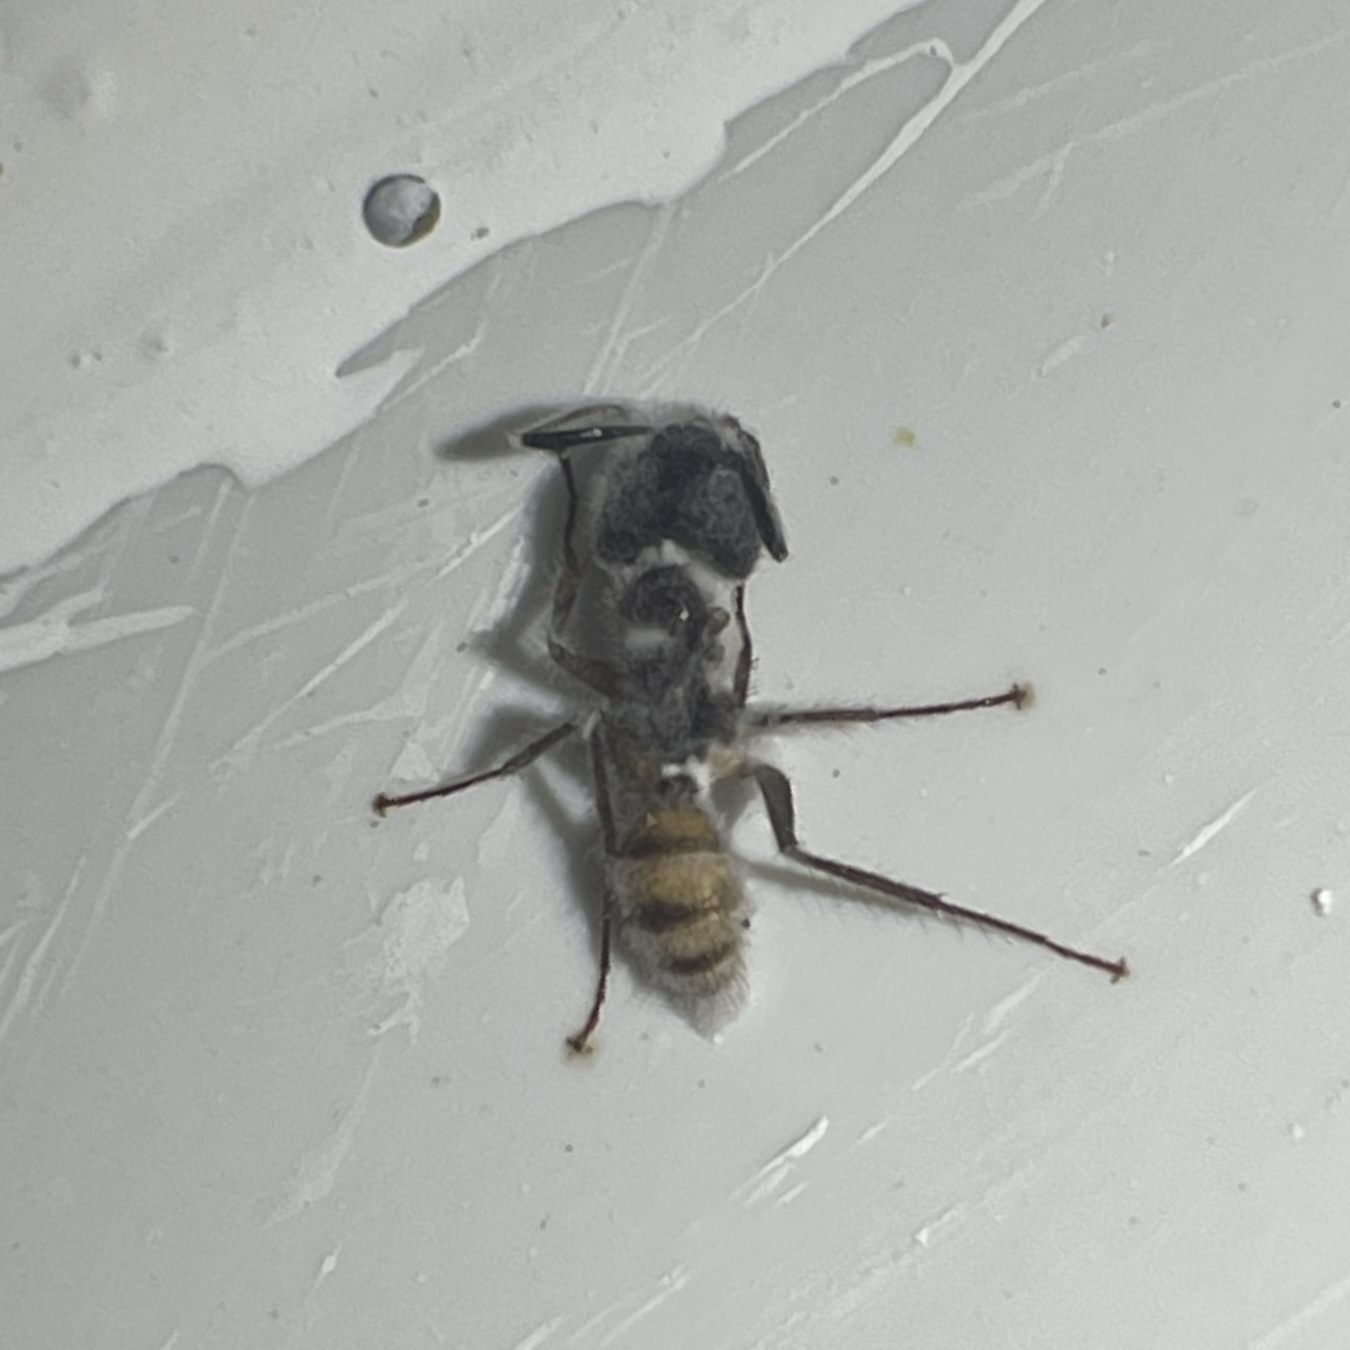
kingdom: Animalia
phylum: Arthropoda
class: Insecta
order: Hymenoptera
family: Formicidae
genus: Camponotus
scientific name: Camponotus atriceps
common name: Florida carpenter ant
